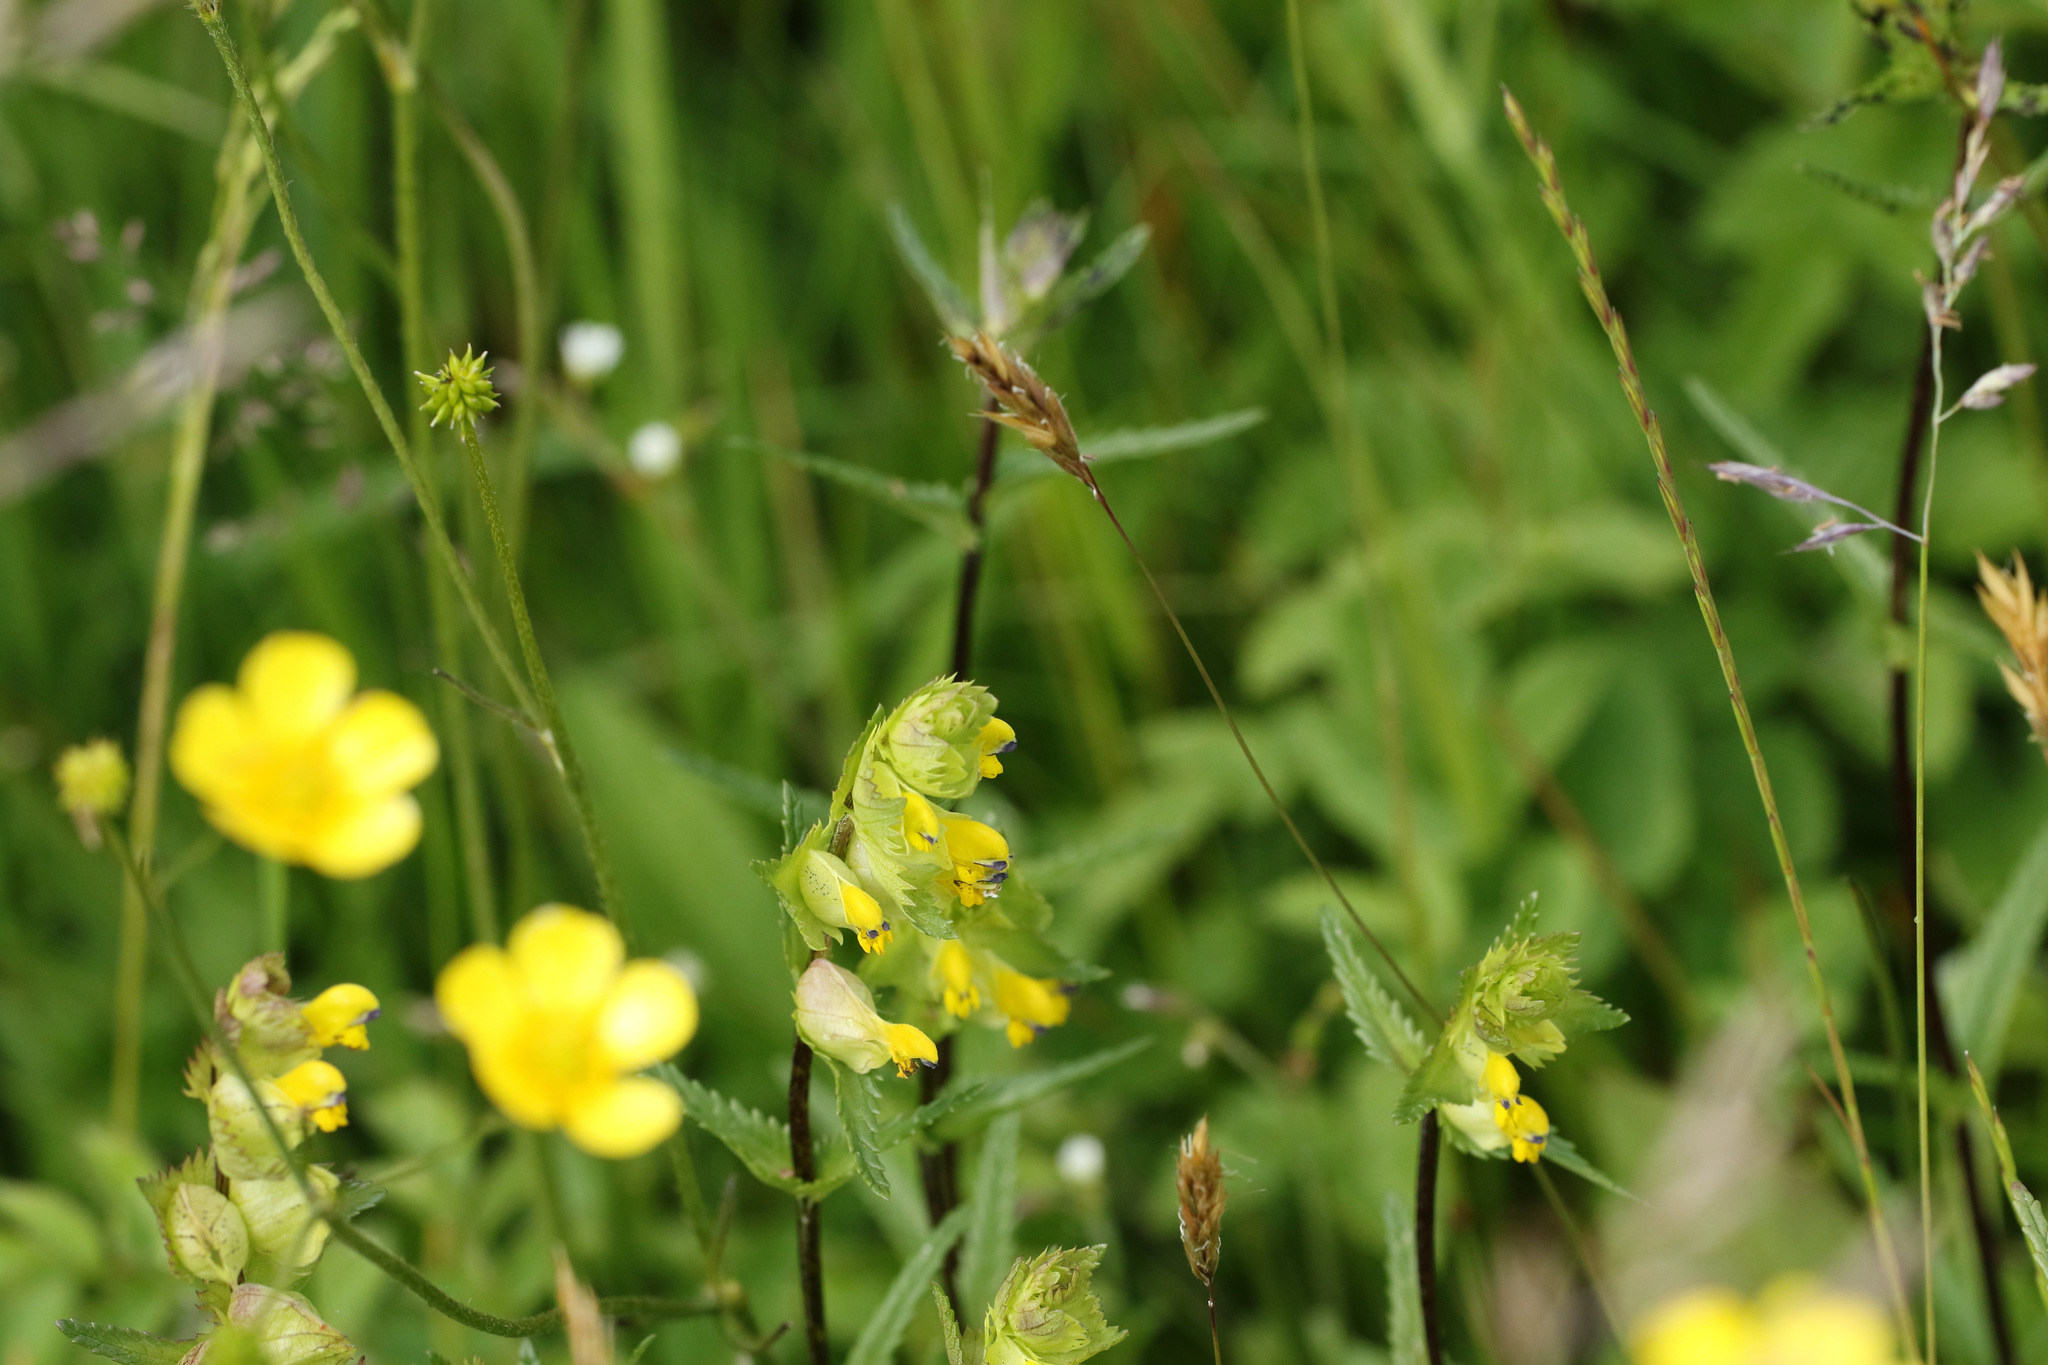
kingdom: Plantae
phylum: Tracheophyta
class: Magnoliopsida
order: Lamiales
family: Orobanchaceae
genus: Rhinanthus
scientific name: Rhinanthus minor
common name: Yellow-rattle
